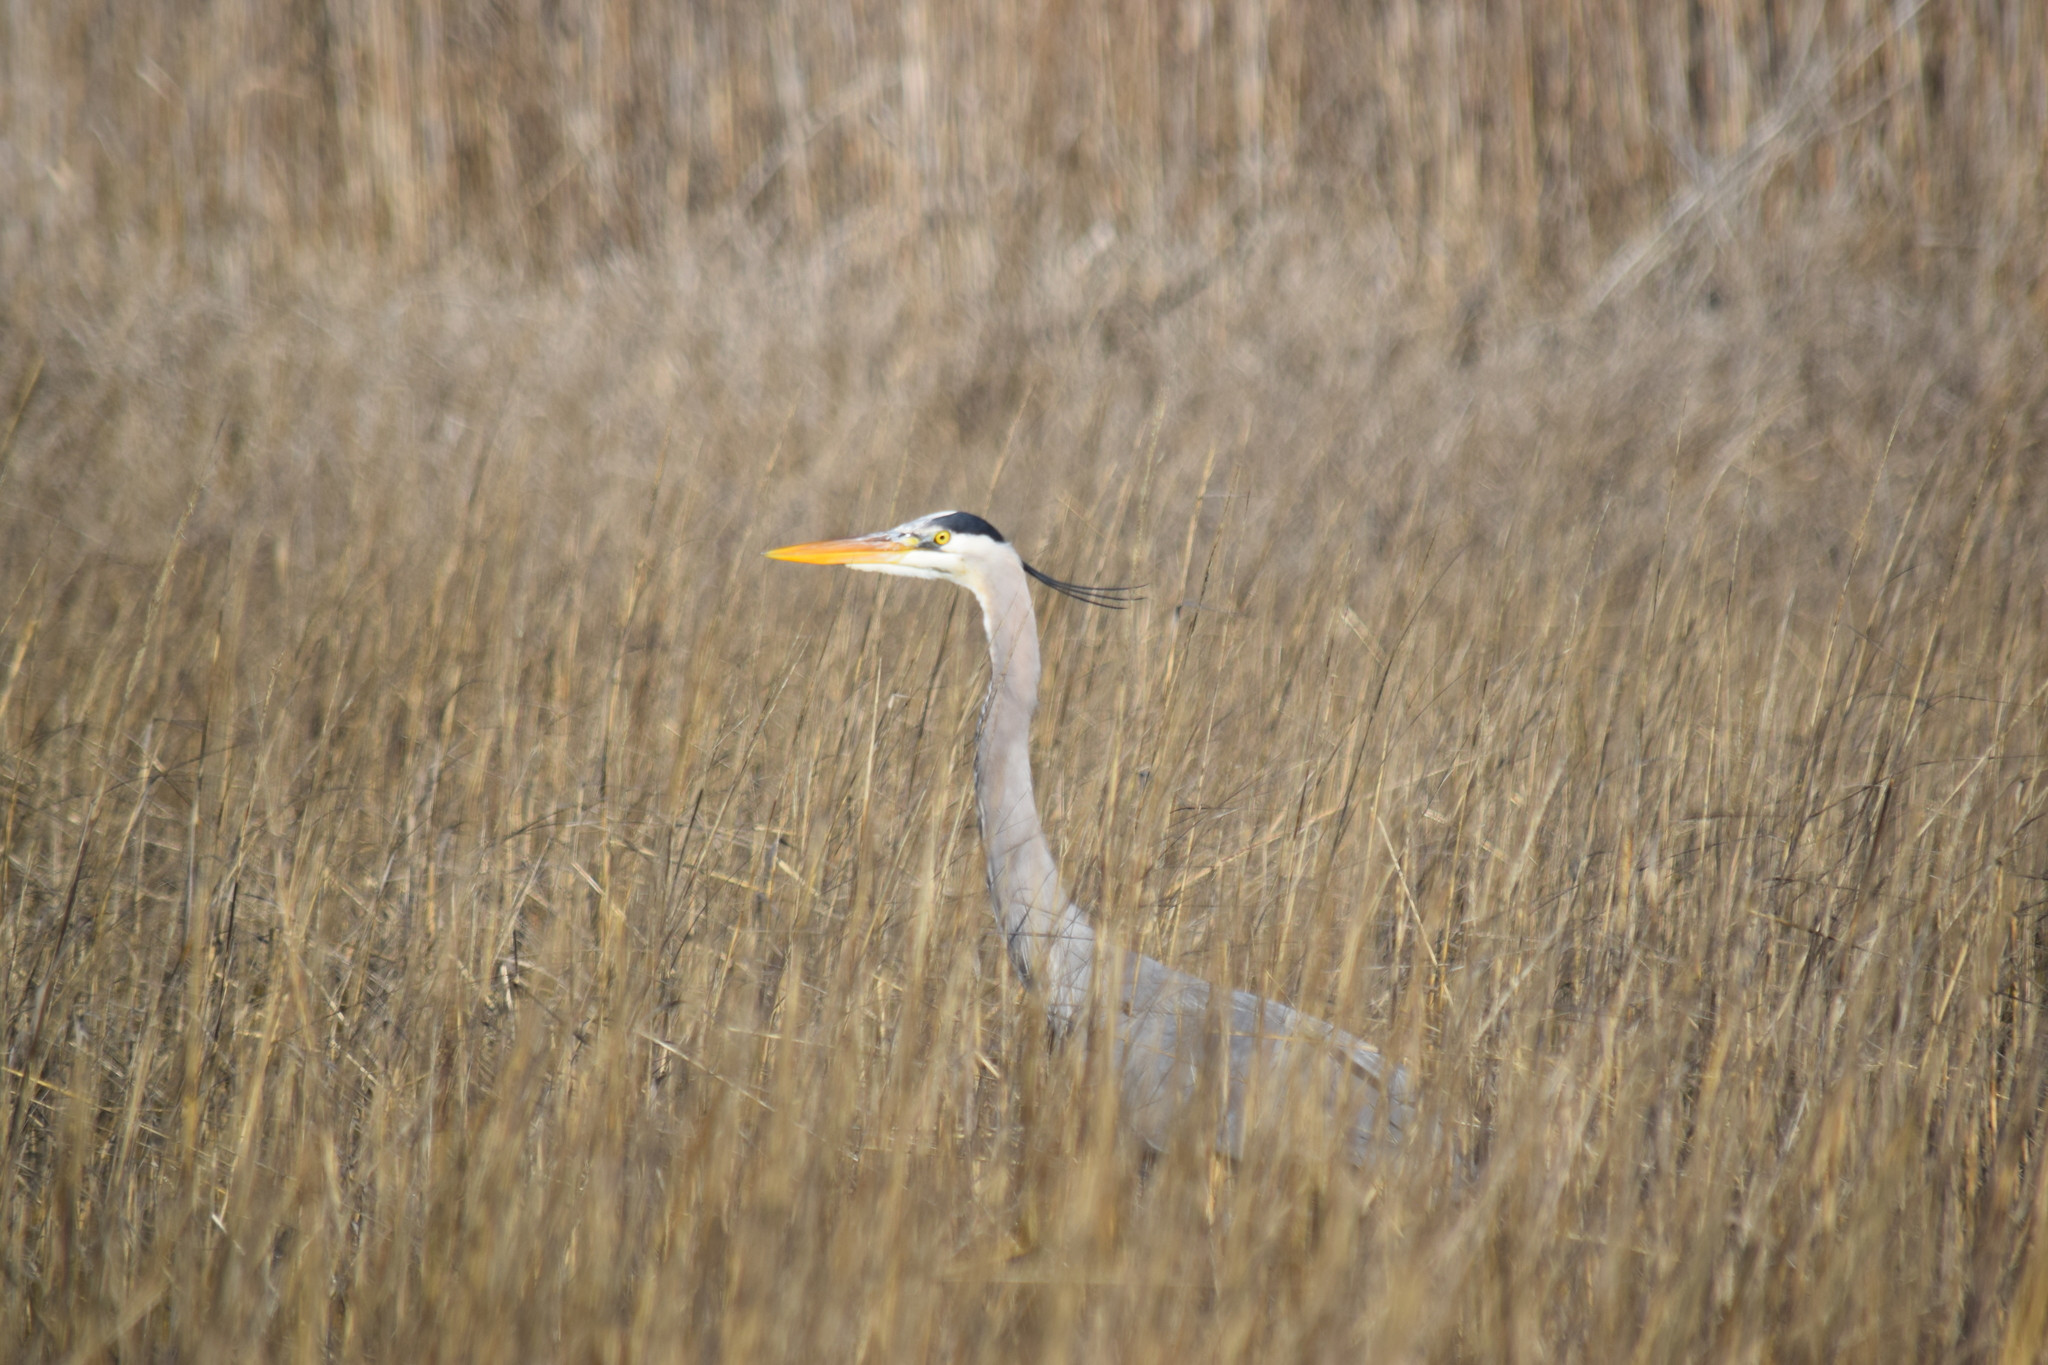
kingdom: Animalia
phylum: Chordata
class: Aves
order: Pelecaniformes
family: Ardeidae
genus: Ardea
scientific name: Ardea herodias
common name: Great blue heron
